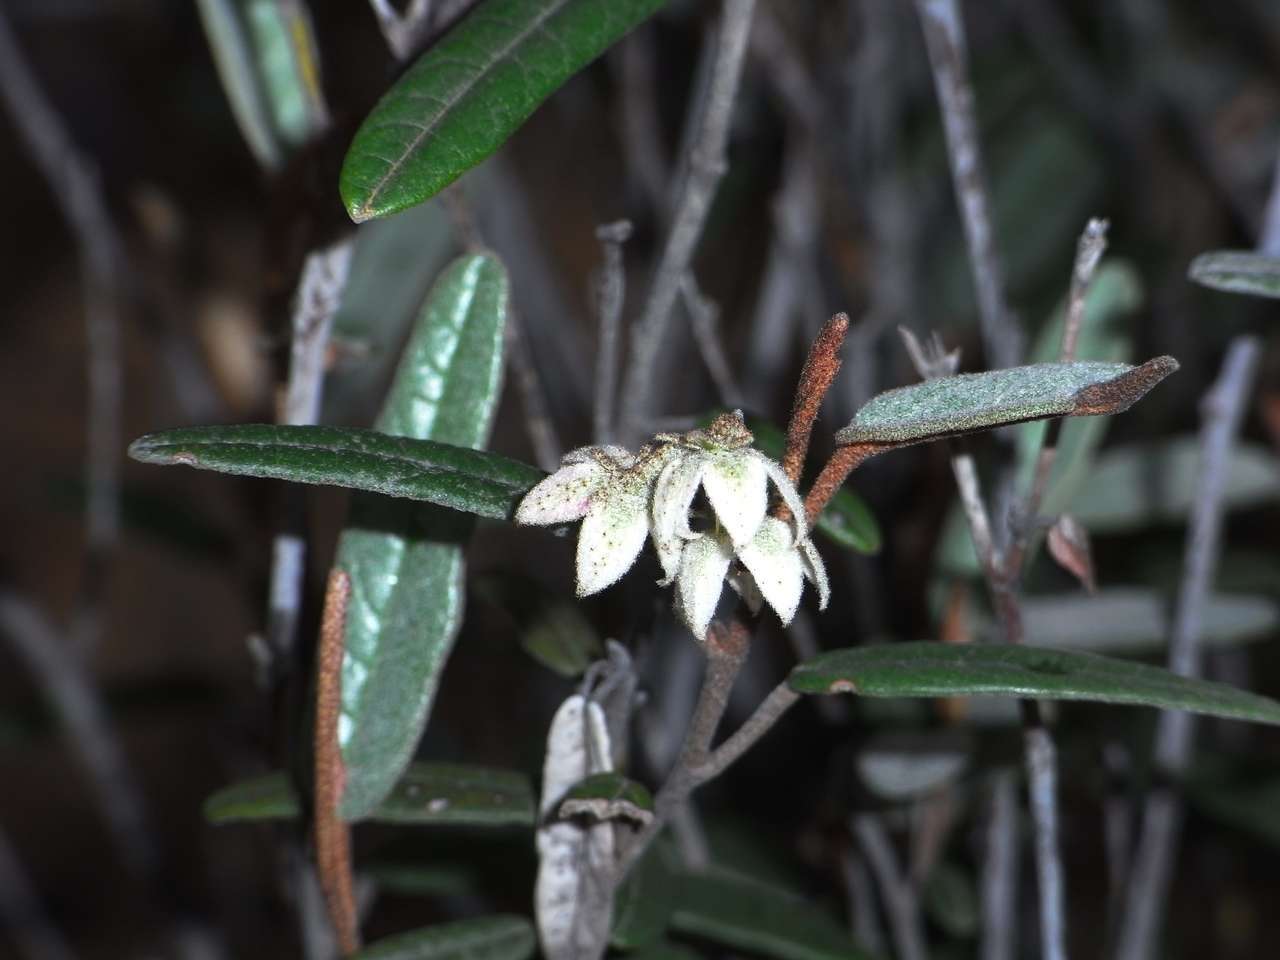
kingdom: Plantae
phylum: Tracheophyta
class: Magnoliopsida
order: Malvales
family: Malvaceae
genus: Lasiopetalum
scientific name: Lasiopetalum behrii
